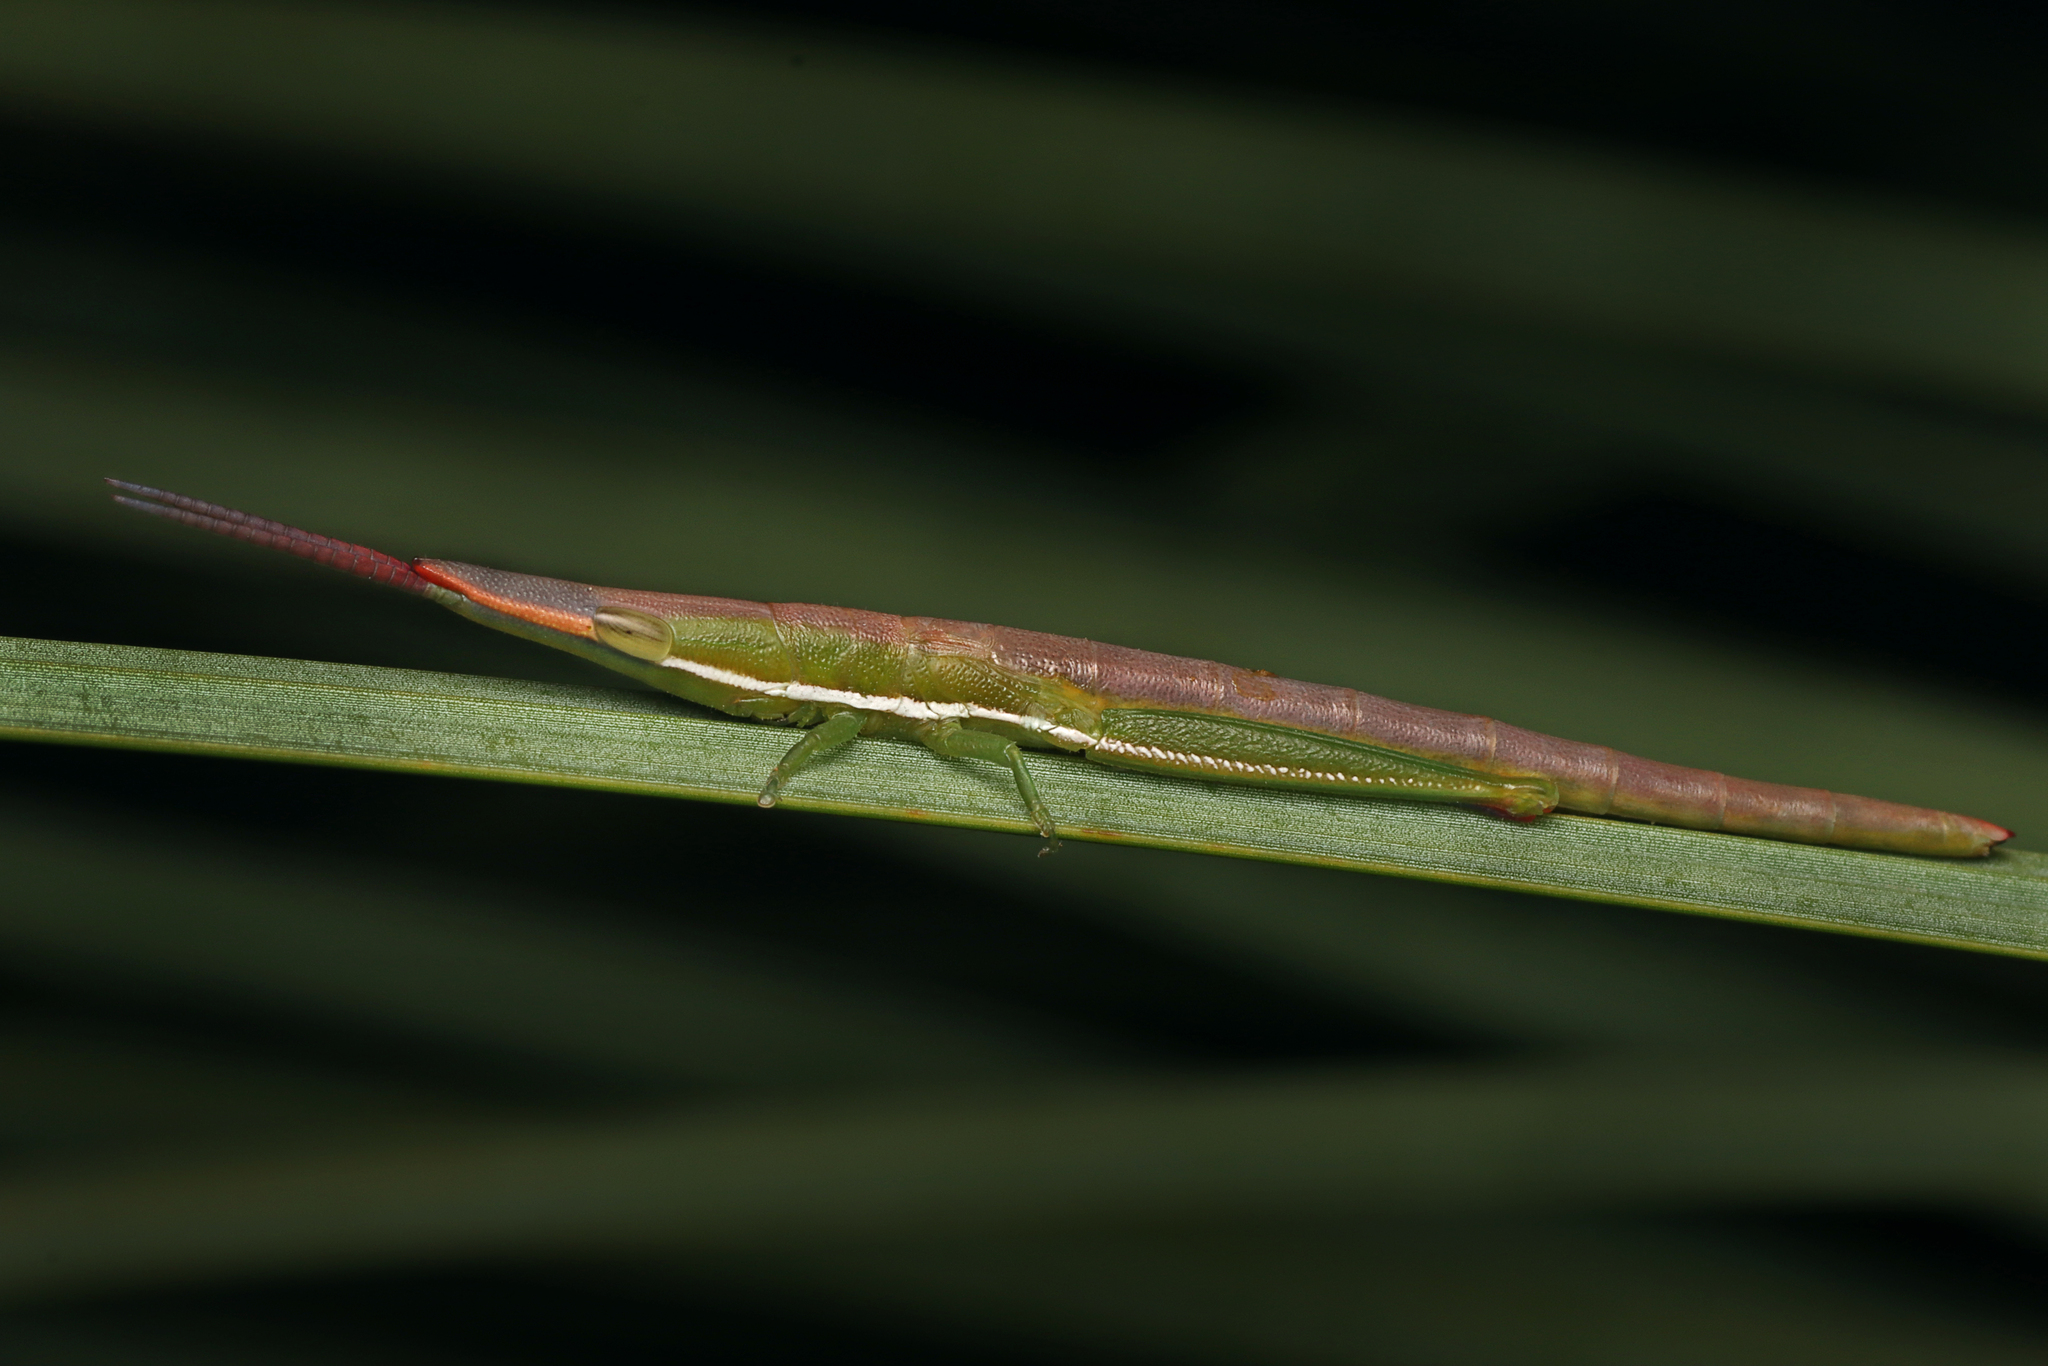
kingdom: Animalia
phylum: Arthropoda
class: Insecta
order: Orthoptera
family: Pyrgomorphidae
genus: Psedna
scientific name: Psedna nana
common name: Variable psedna
